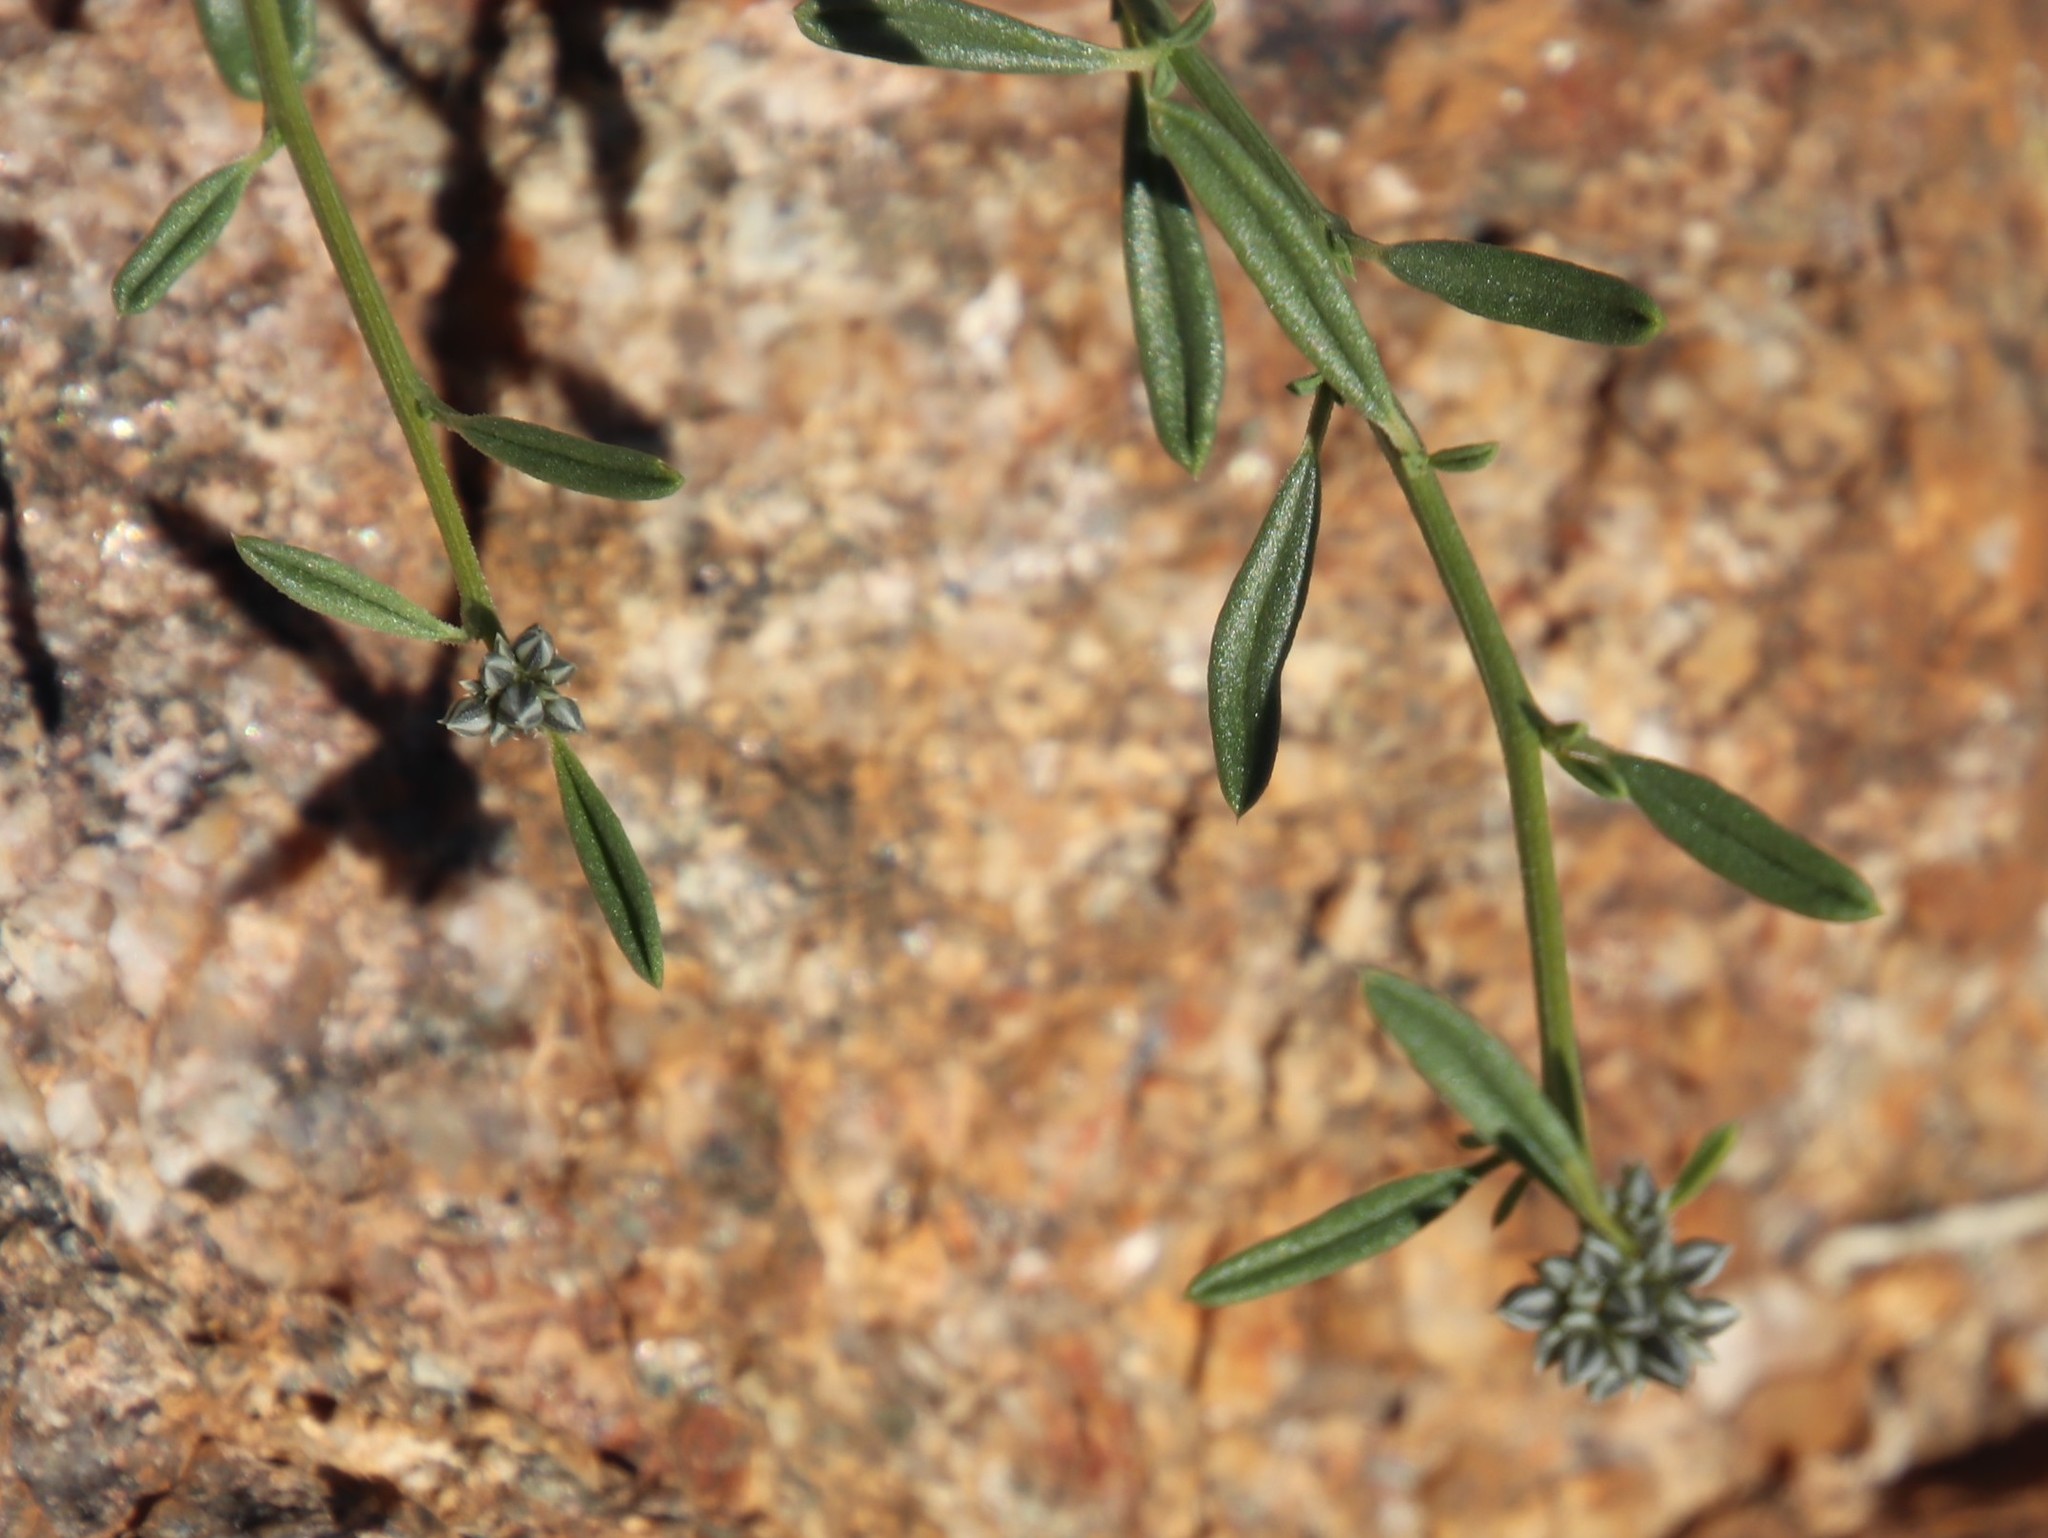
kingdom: Plantae
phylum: Tracheophyta
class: Magnoliopsida
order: Caryophyllales
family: Limeaceae
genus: Limeum
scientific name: Limeum aethiopicum
